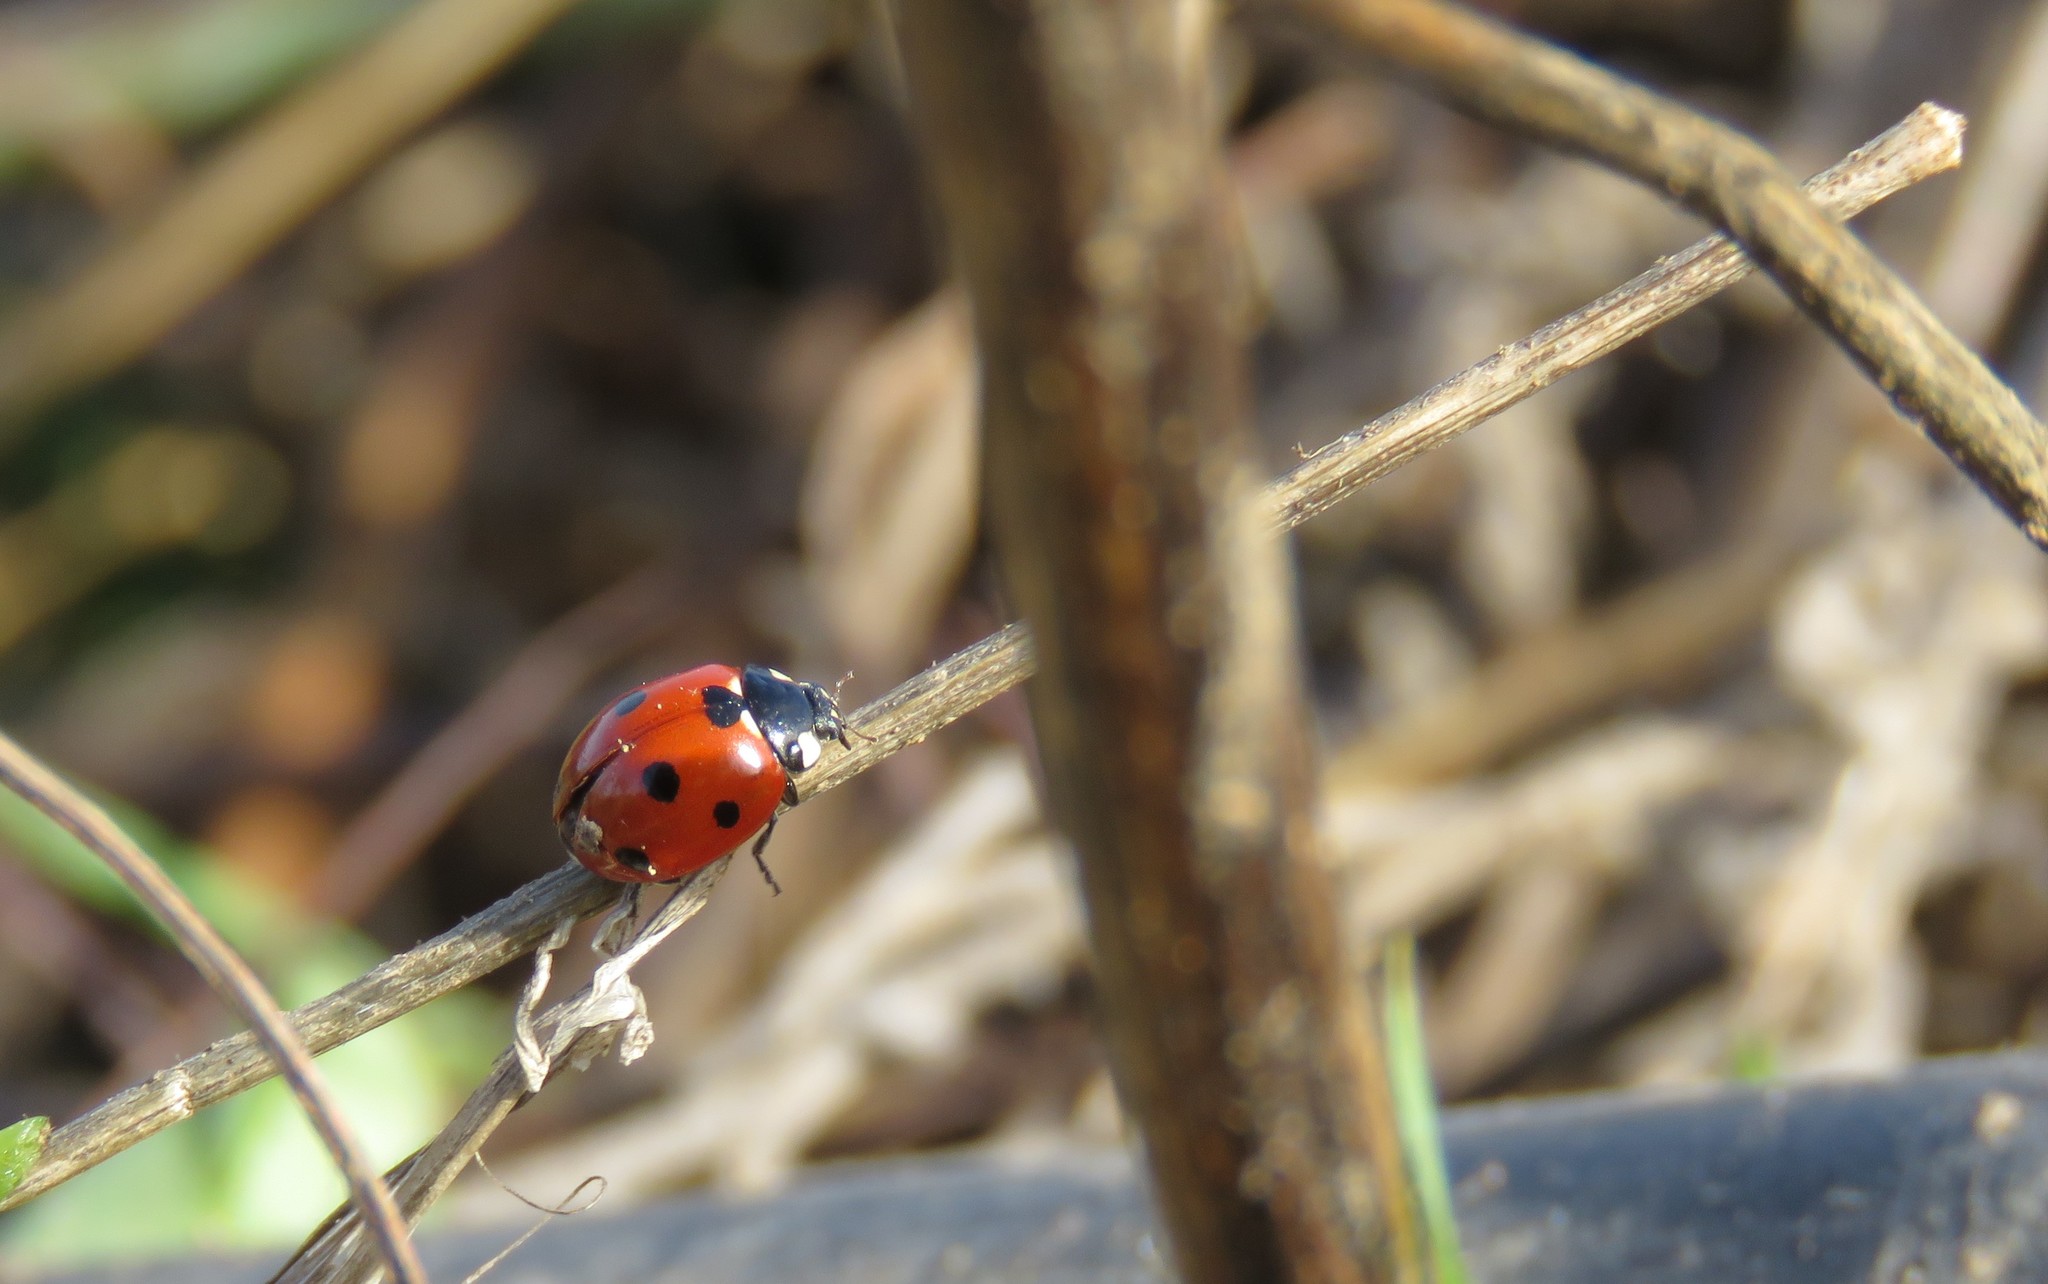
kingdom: Animalia
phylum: Arthropoda
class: Insecta
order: Coleoptera
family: Coccinellidae
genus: Coccinella
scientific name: Coccinella septempunctata
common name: Sevenspotted lady beetle
